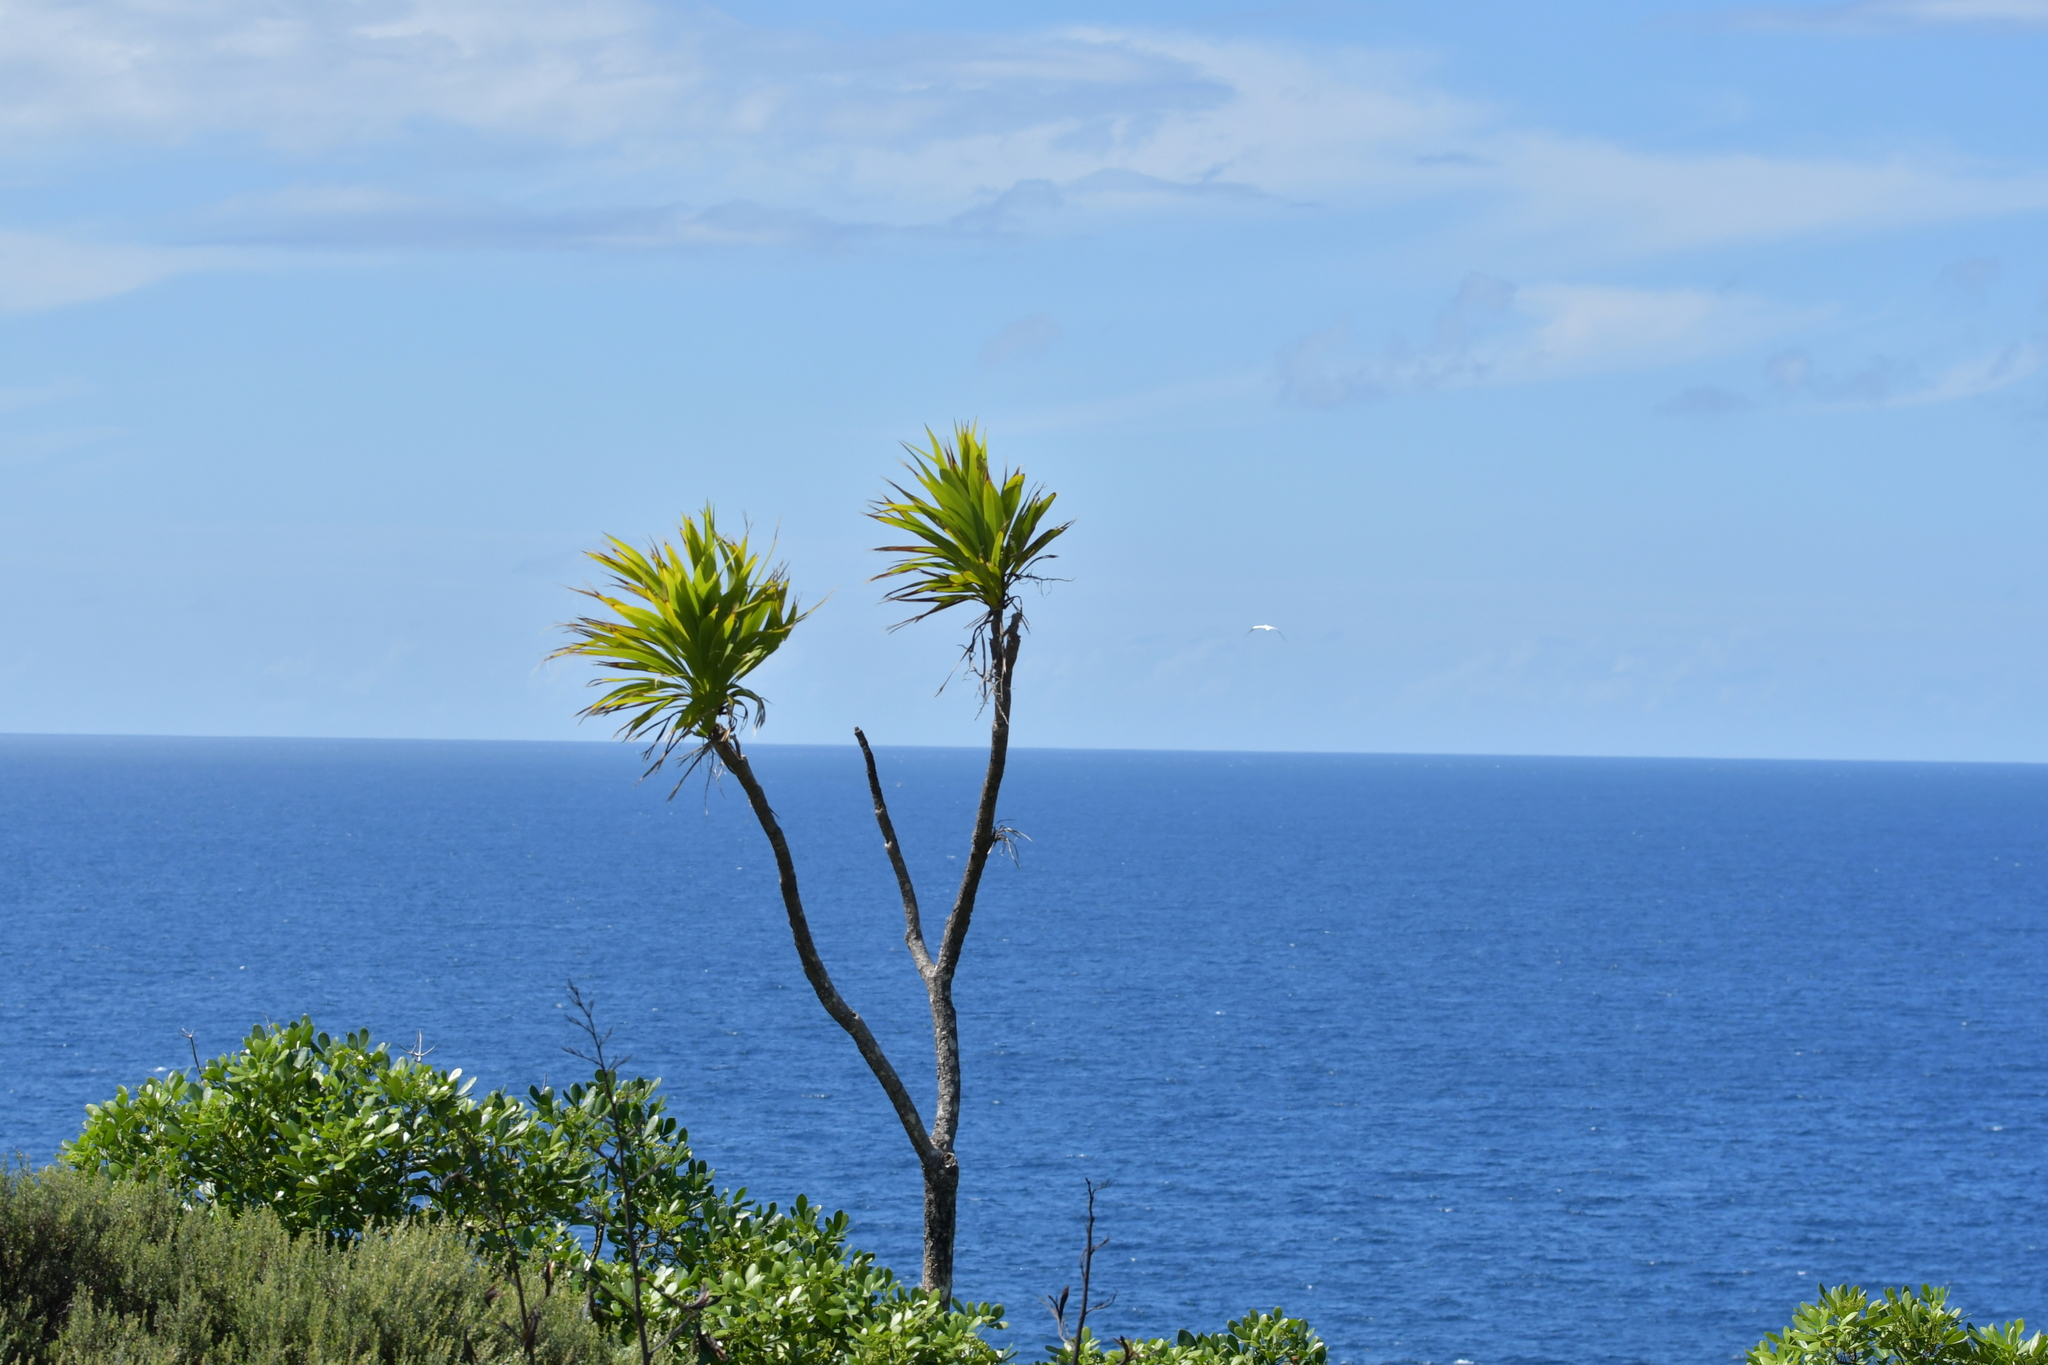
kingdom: Plantae
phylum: Tracheophyta
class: Liliopsida
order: Asparagales
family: Asparagaceae
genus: Cordyline
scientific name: Cordyline australis
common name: Cabbage-palm
